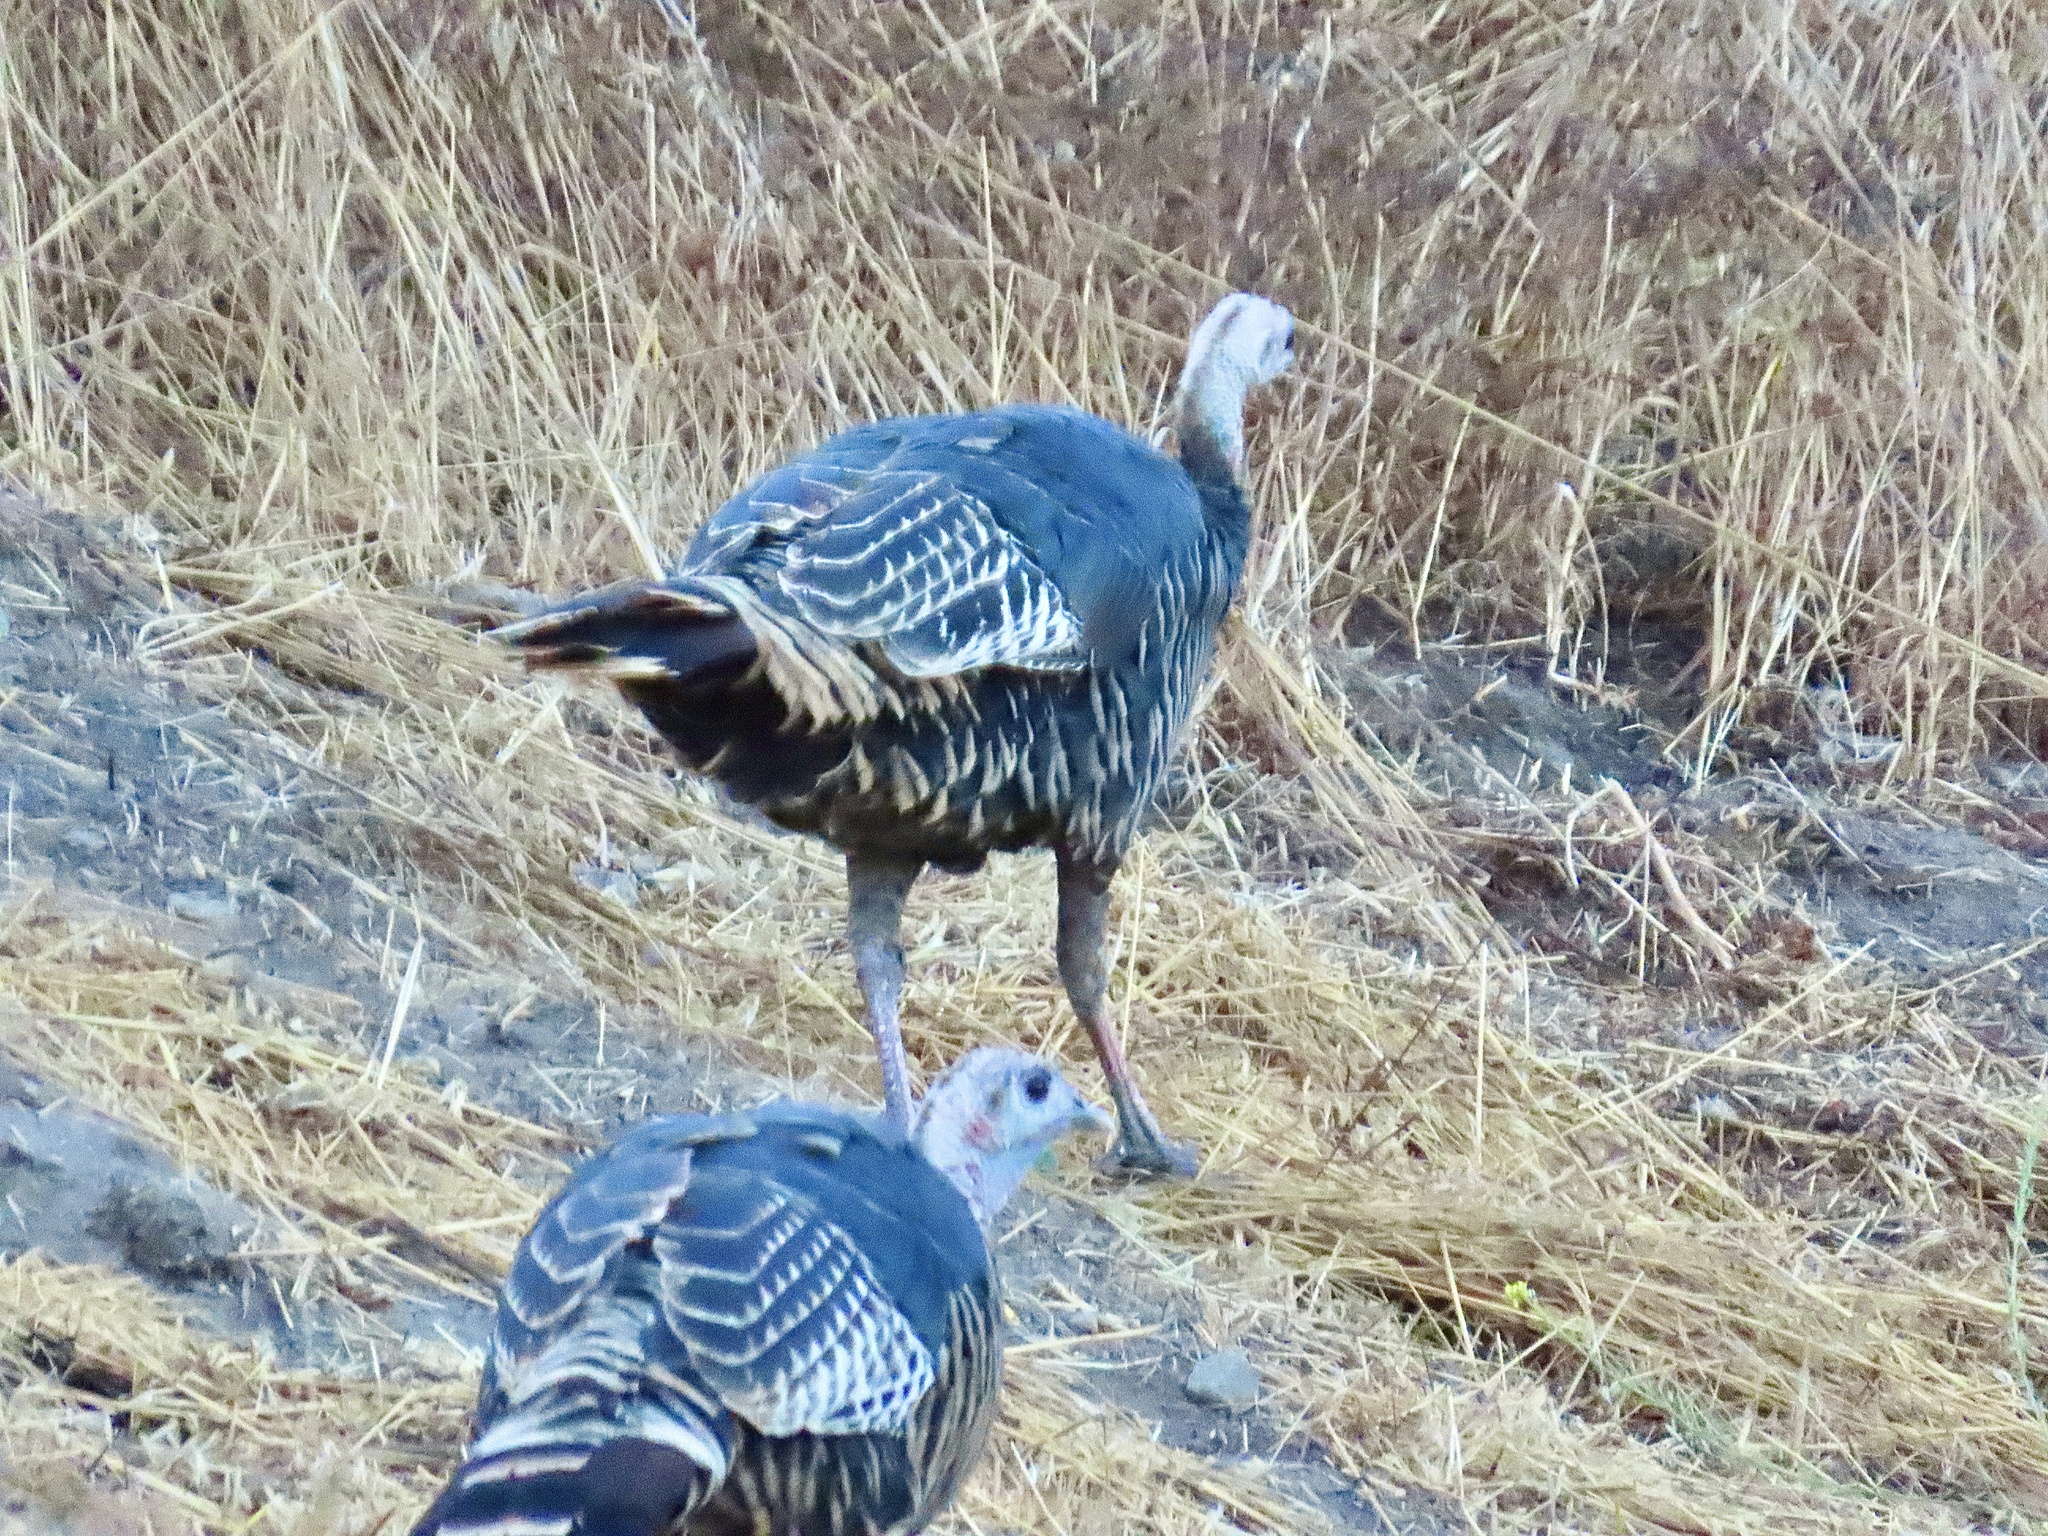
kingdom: Animalia
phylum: Chordata
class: Aves
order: Galliformes
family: Phasianidae
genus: Meleagris
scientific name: Meleagris gallopavo
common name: Wild turkey
